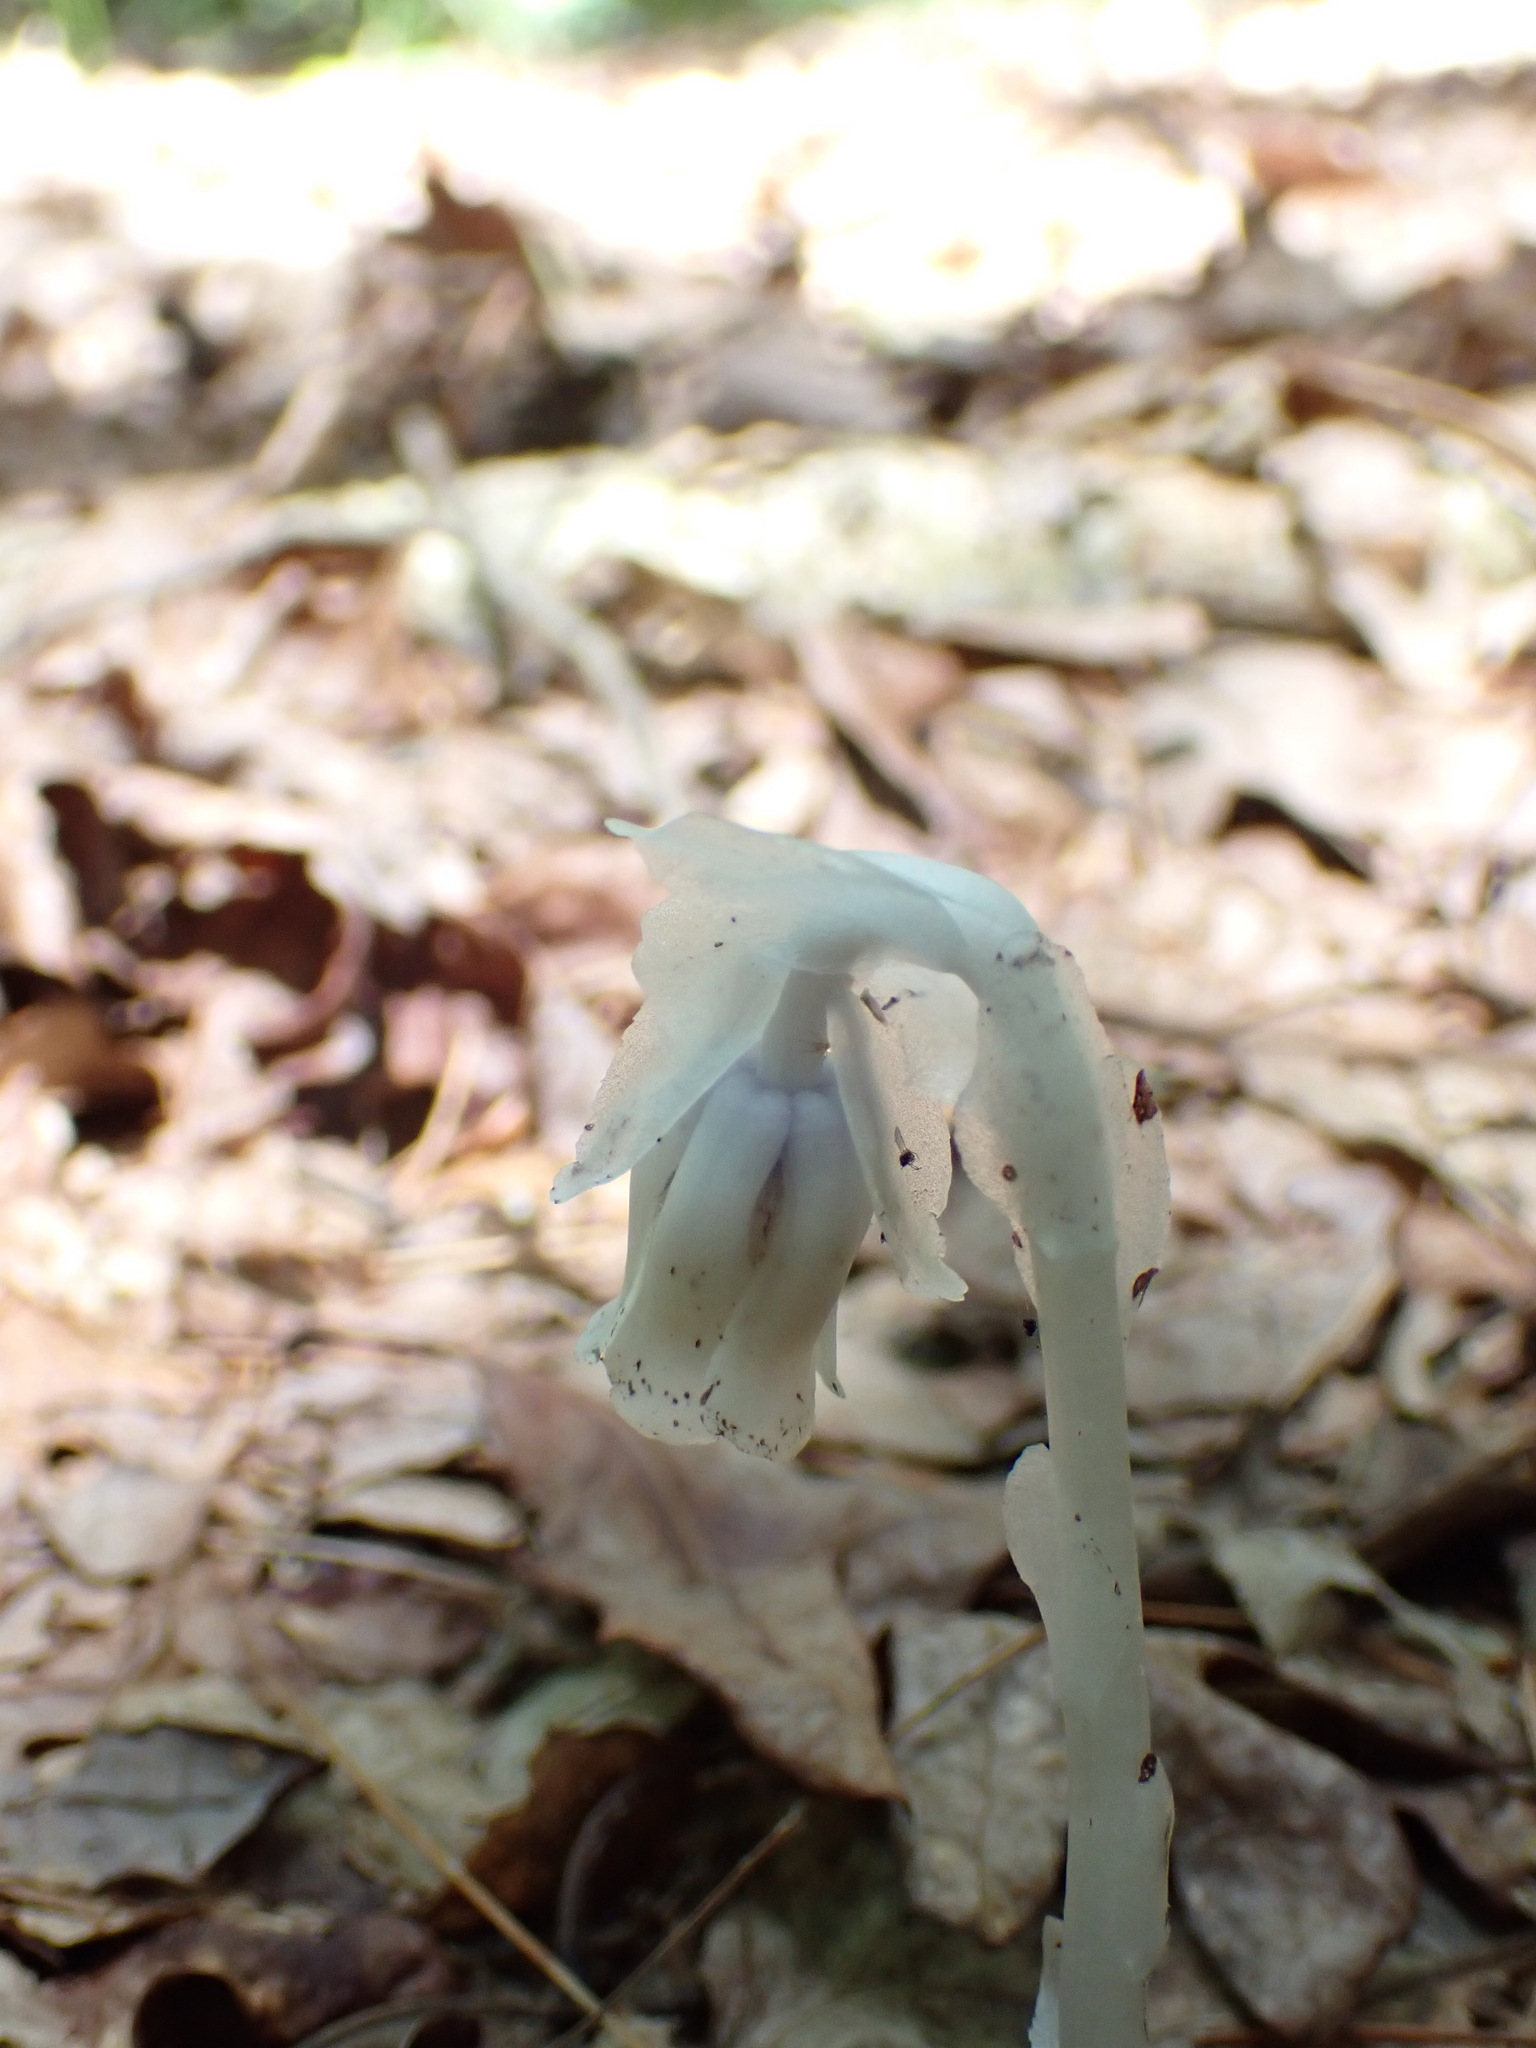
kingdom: Plantae
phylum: Tracheophyta
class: Magnoliopsida
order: Ericales
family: Ericaceae
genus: Monotropa
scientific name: Monotropa uniflora
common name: Convulsion root
